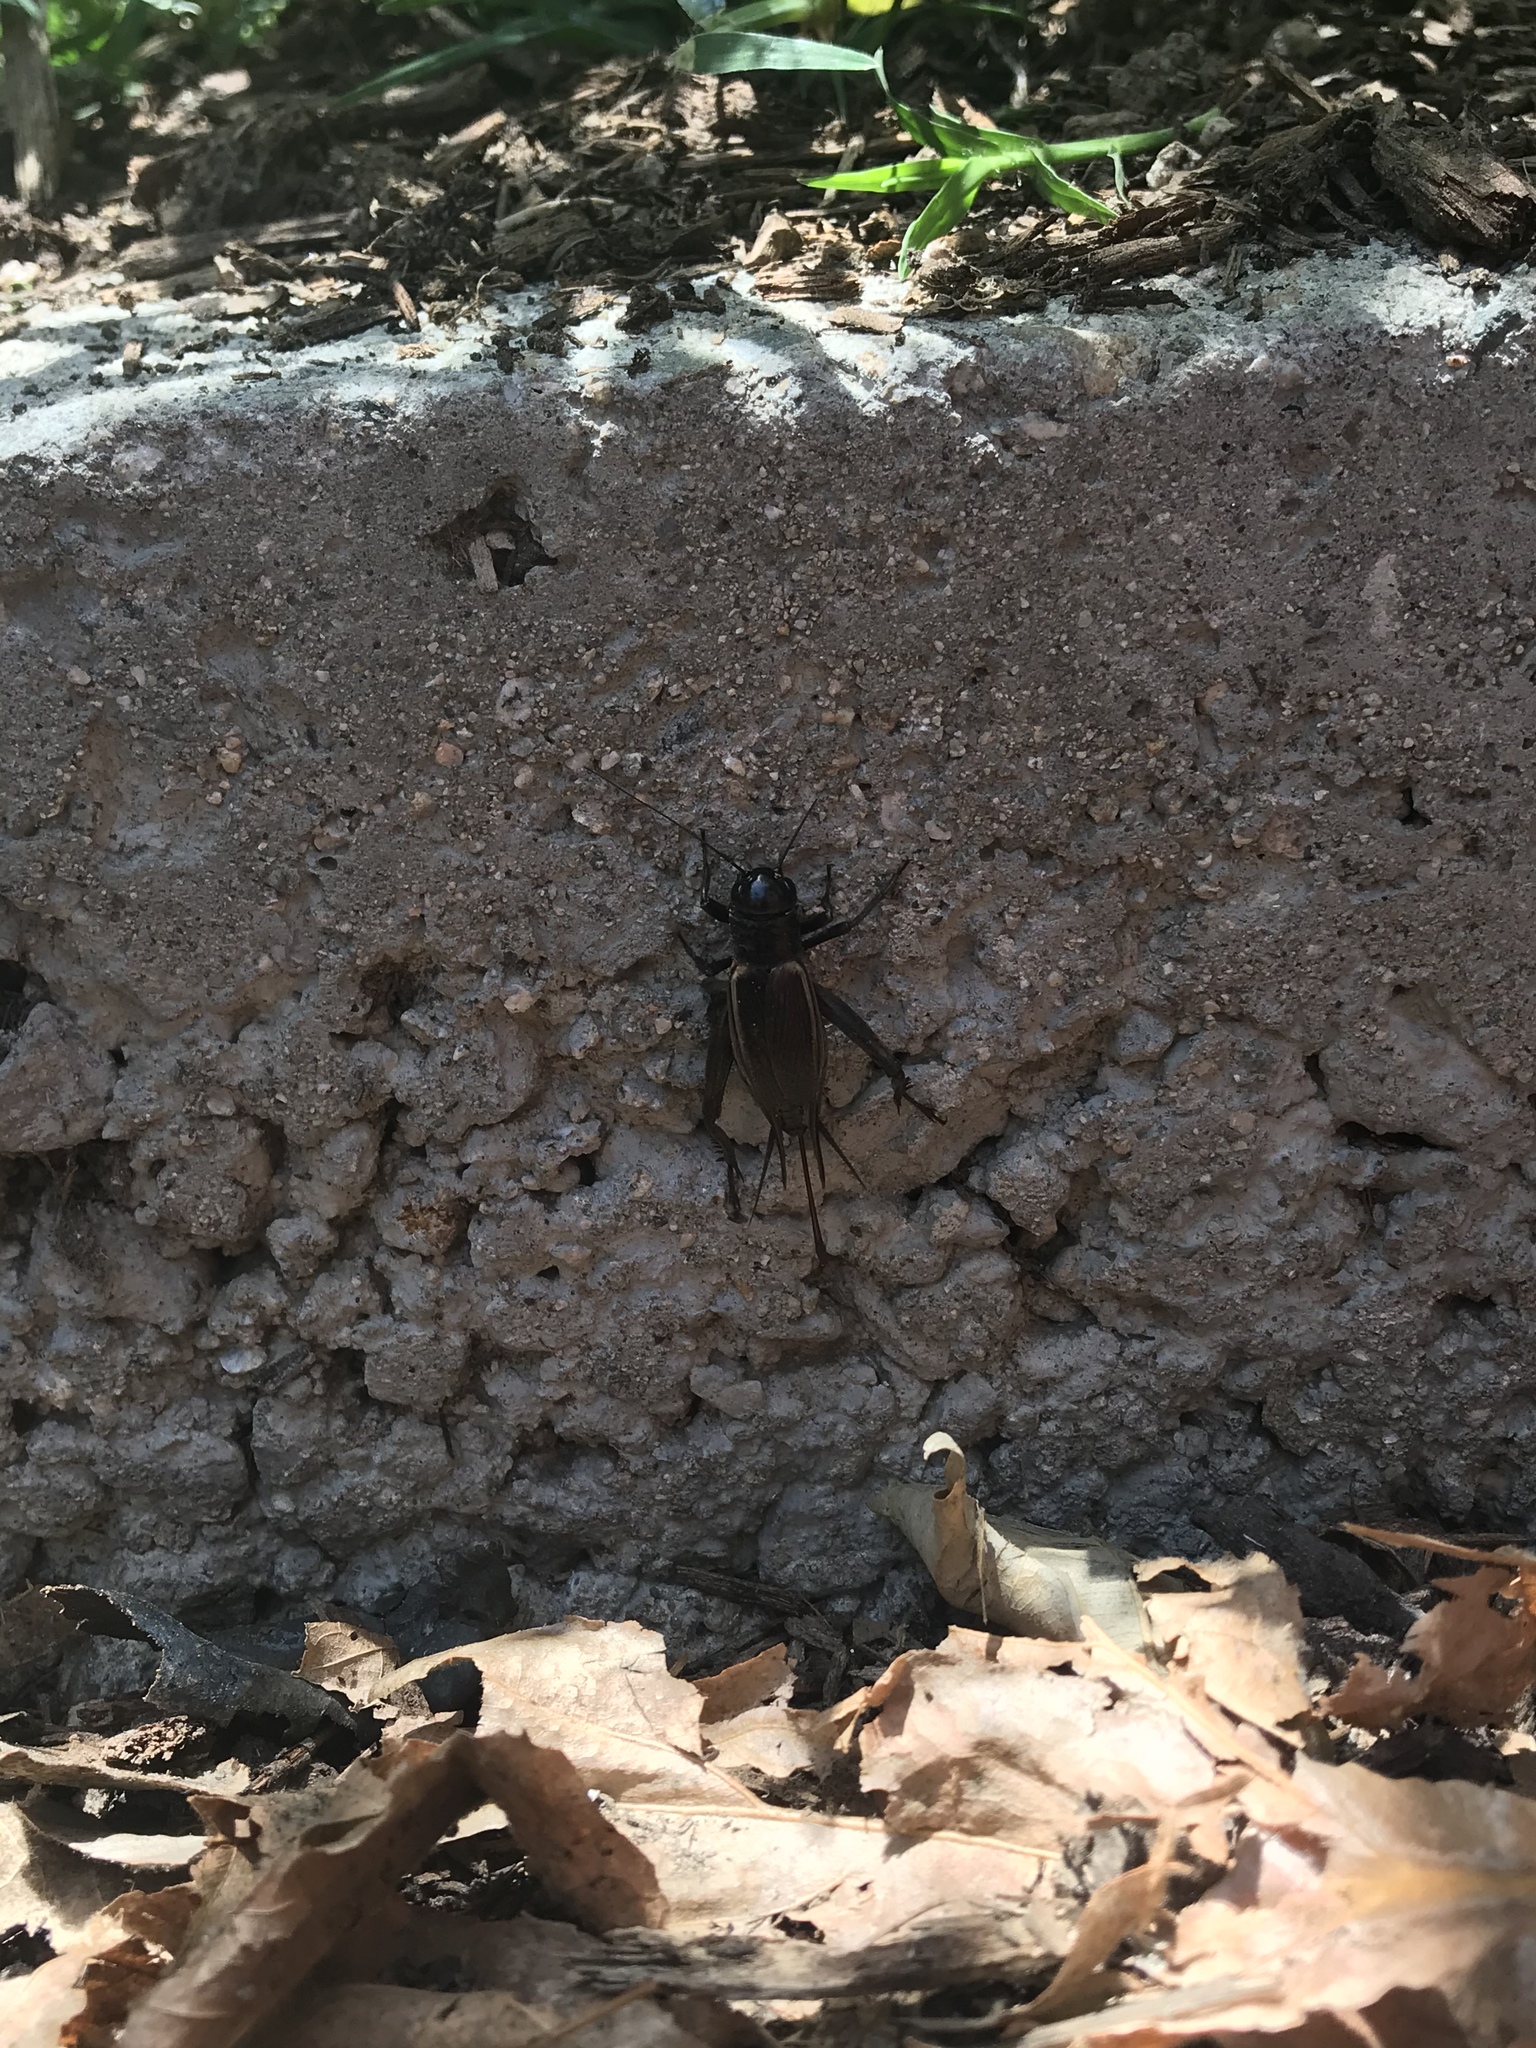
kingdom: Animalia
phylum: Arthropoda
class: Insecta
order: Orthoptera
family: Gryllidae
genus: Gryllus
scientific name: Gryllus
